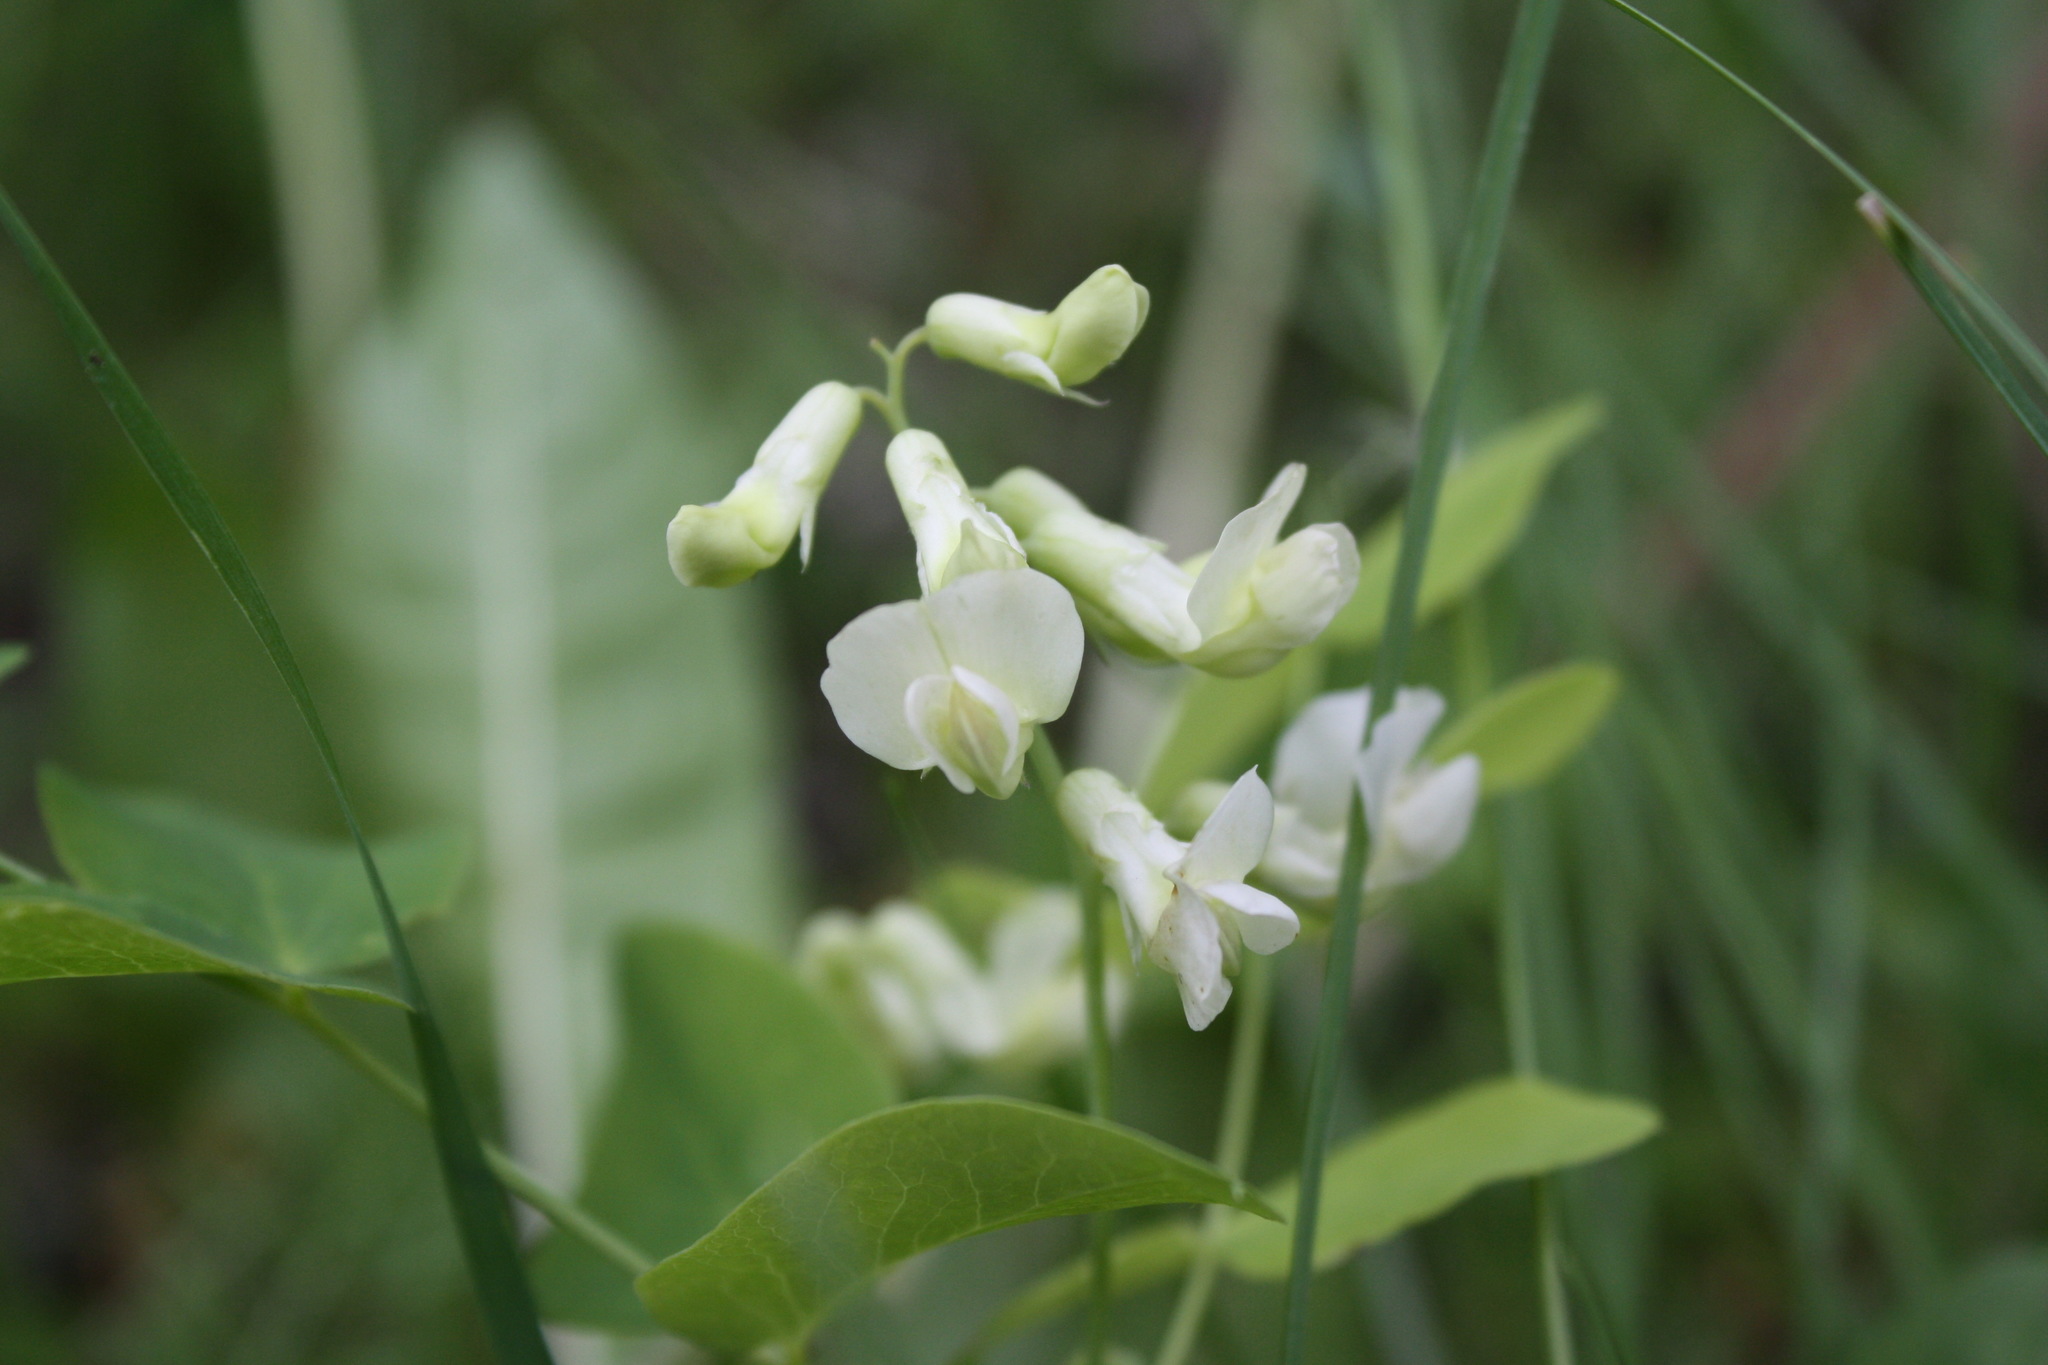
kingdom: Plantae
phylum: Tracheophyta
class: Magnoliopsida
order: Fabales
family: Fabaceae
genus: Lathyrus
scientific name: Lathyrus ochroleucus
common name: Pale vetchling
